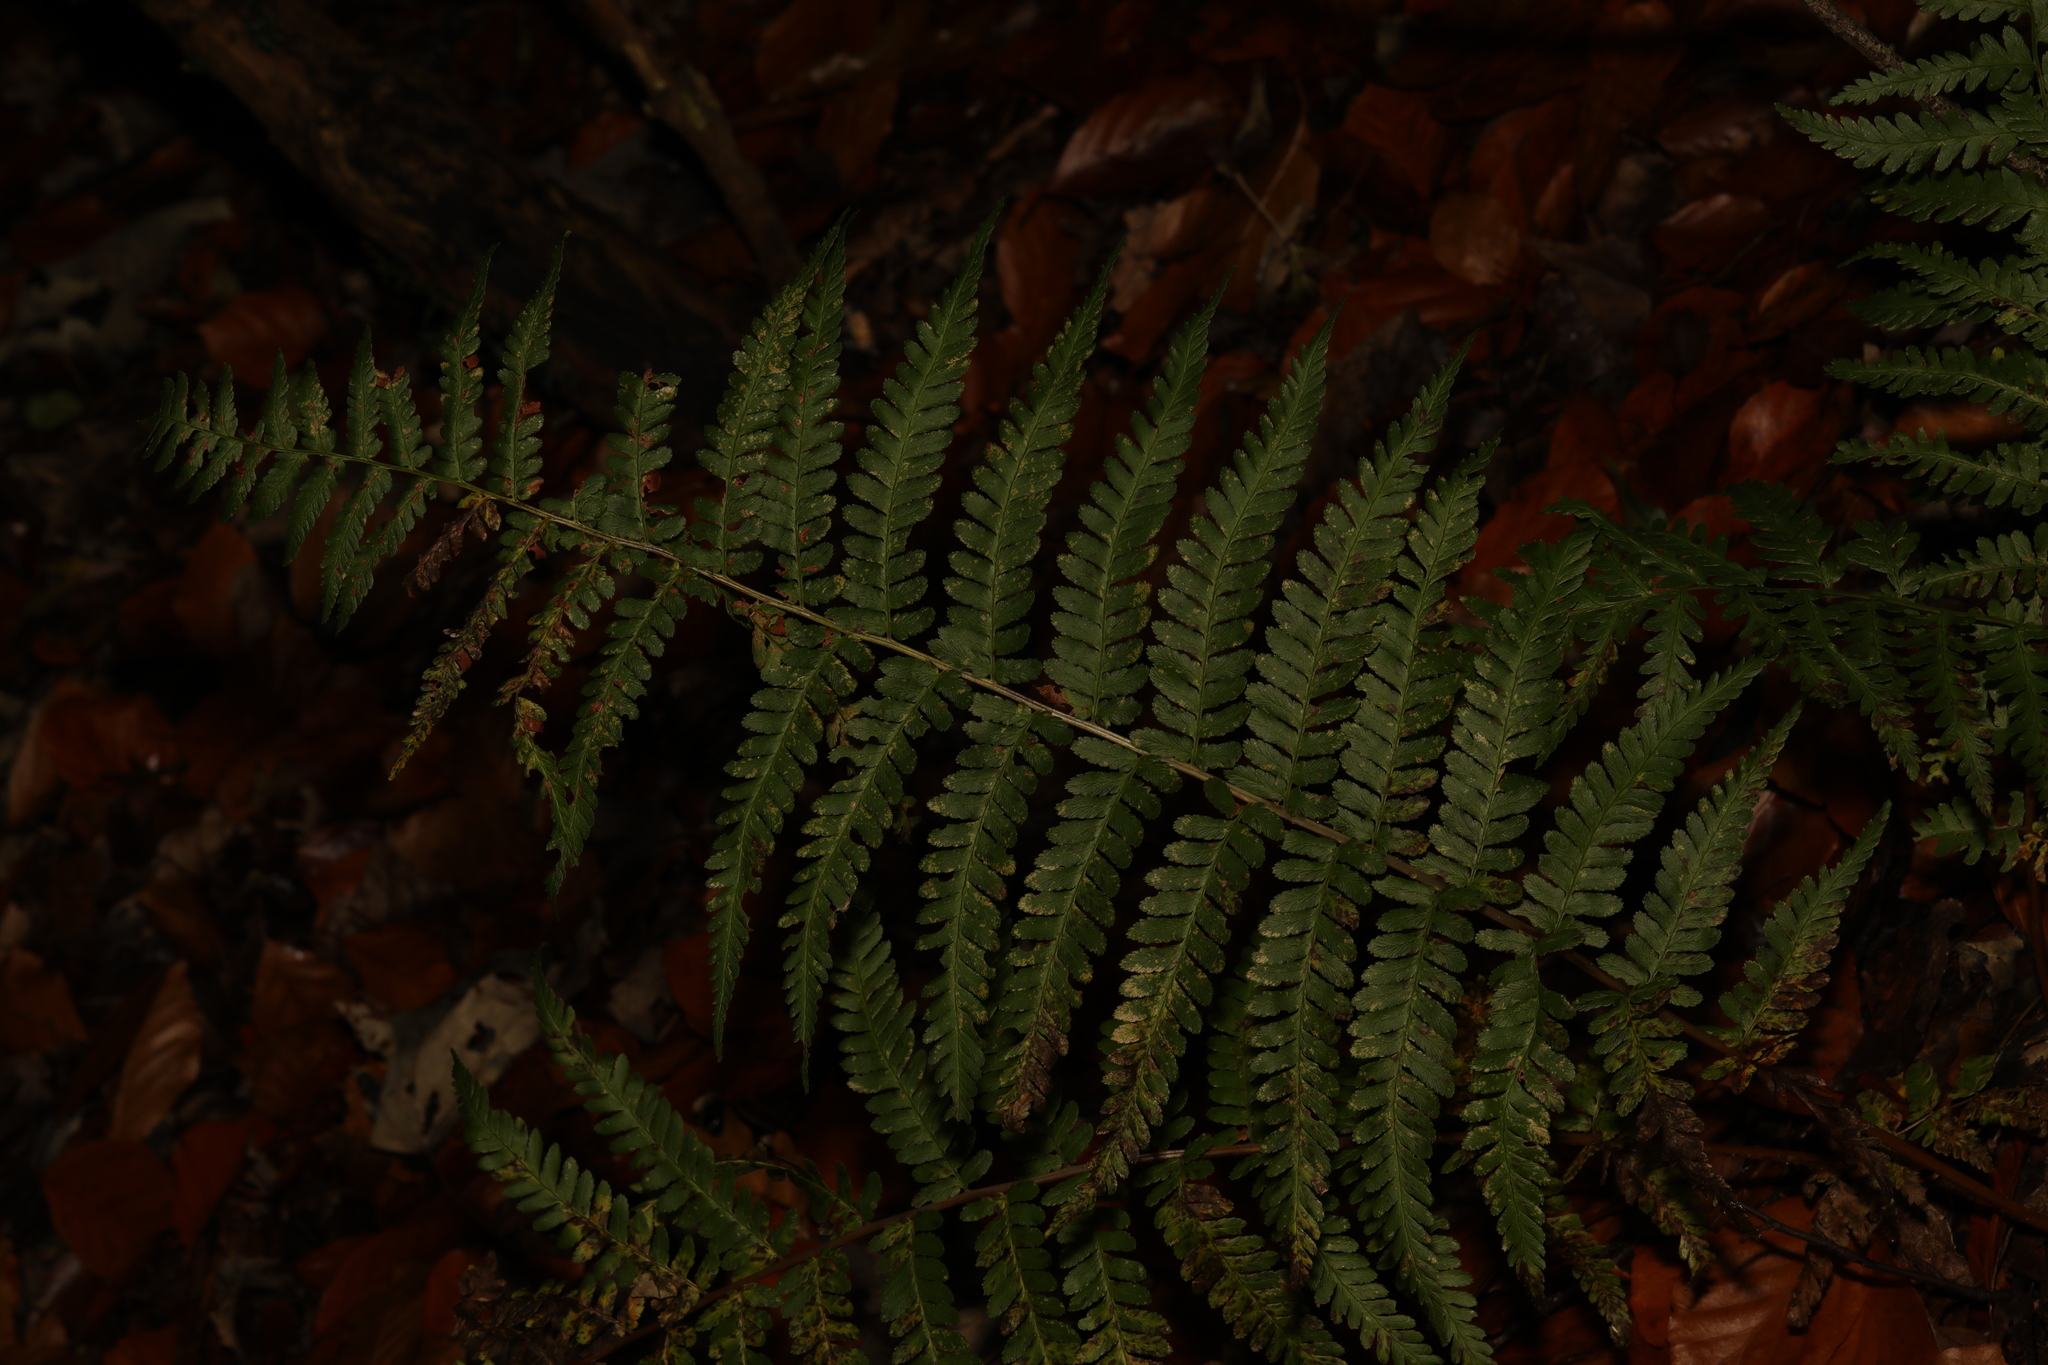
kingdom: Plantae
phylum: Tracheophyta
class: Polypodiopsida
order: Polypodiales
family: Dryopteridaceae
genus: Dryopteris
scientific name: Dryopteris filix-mas
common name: Male fern
